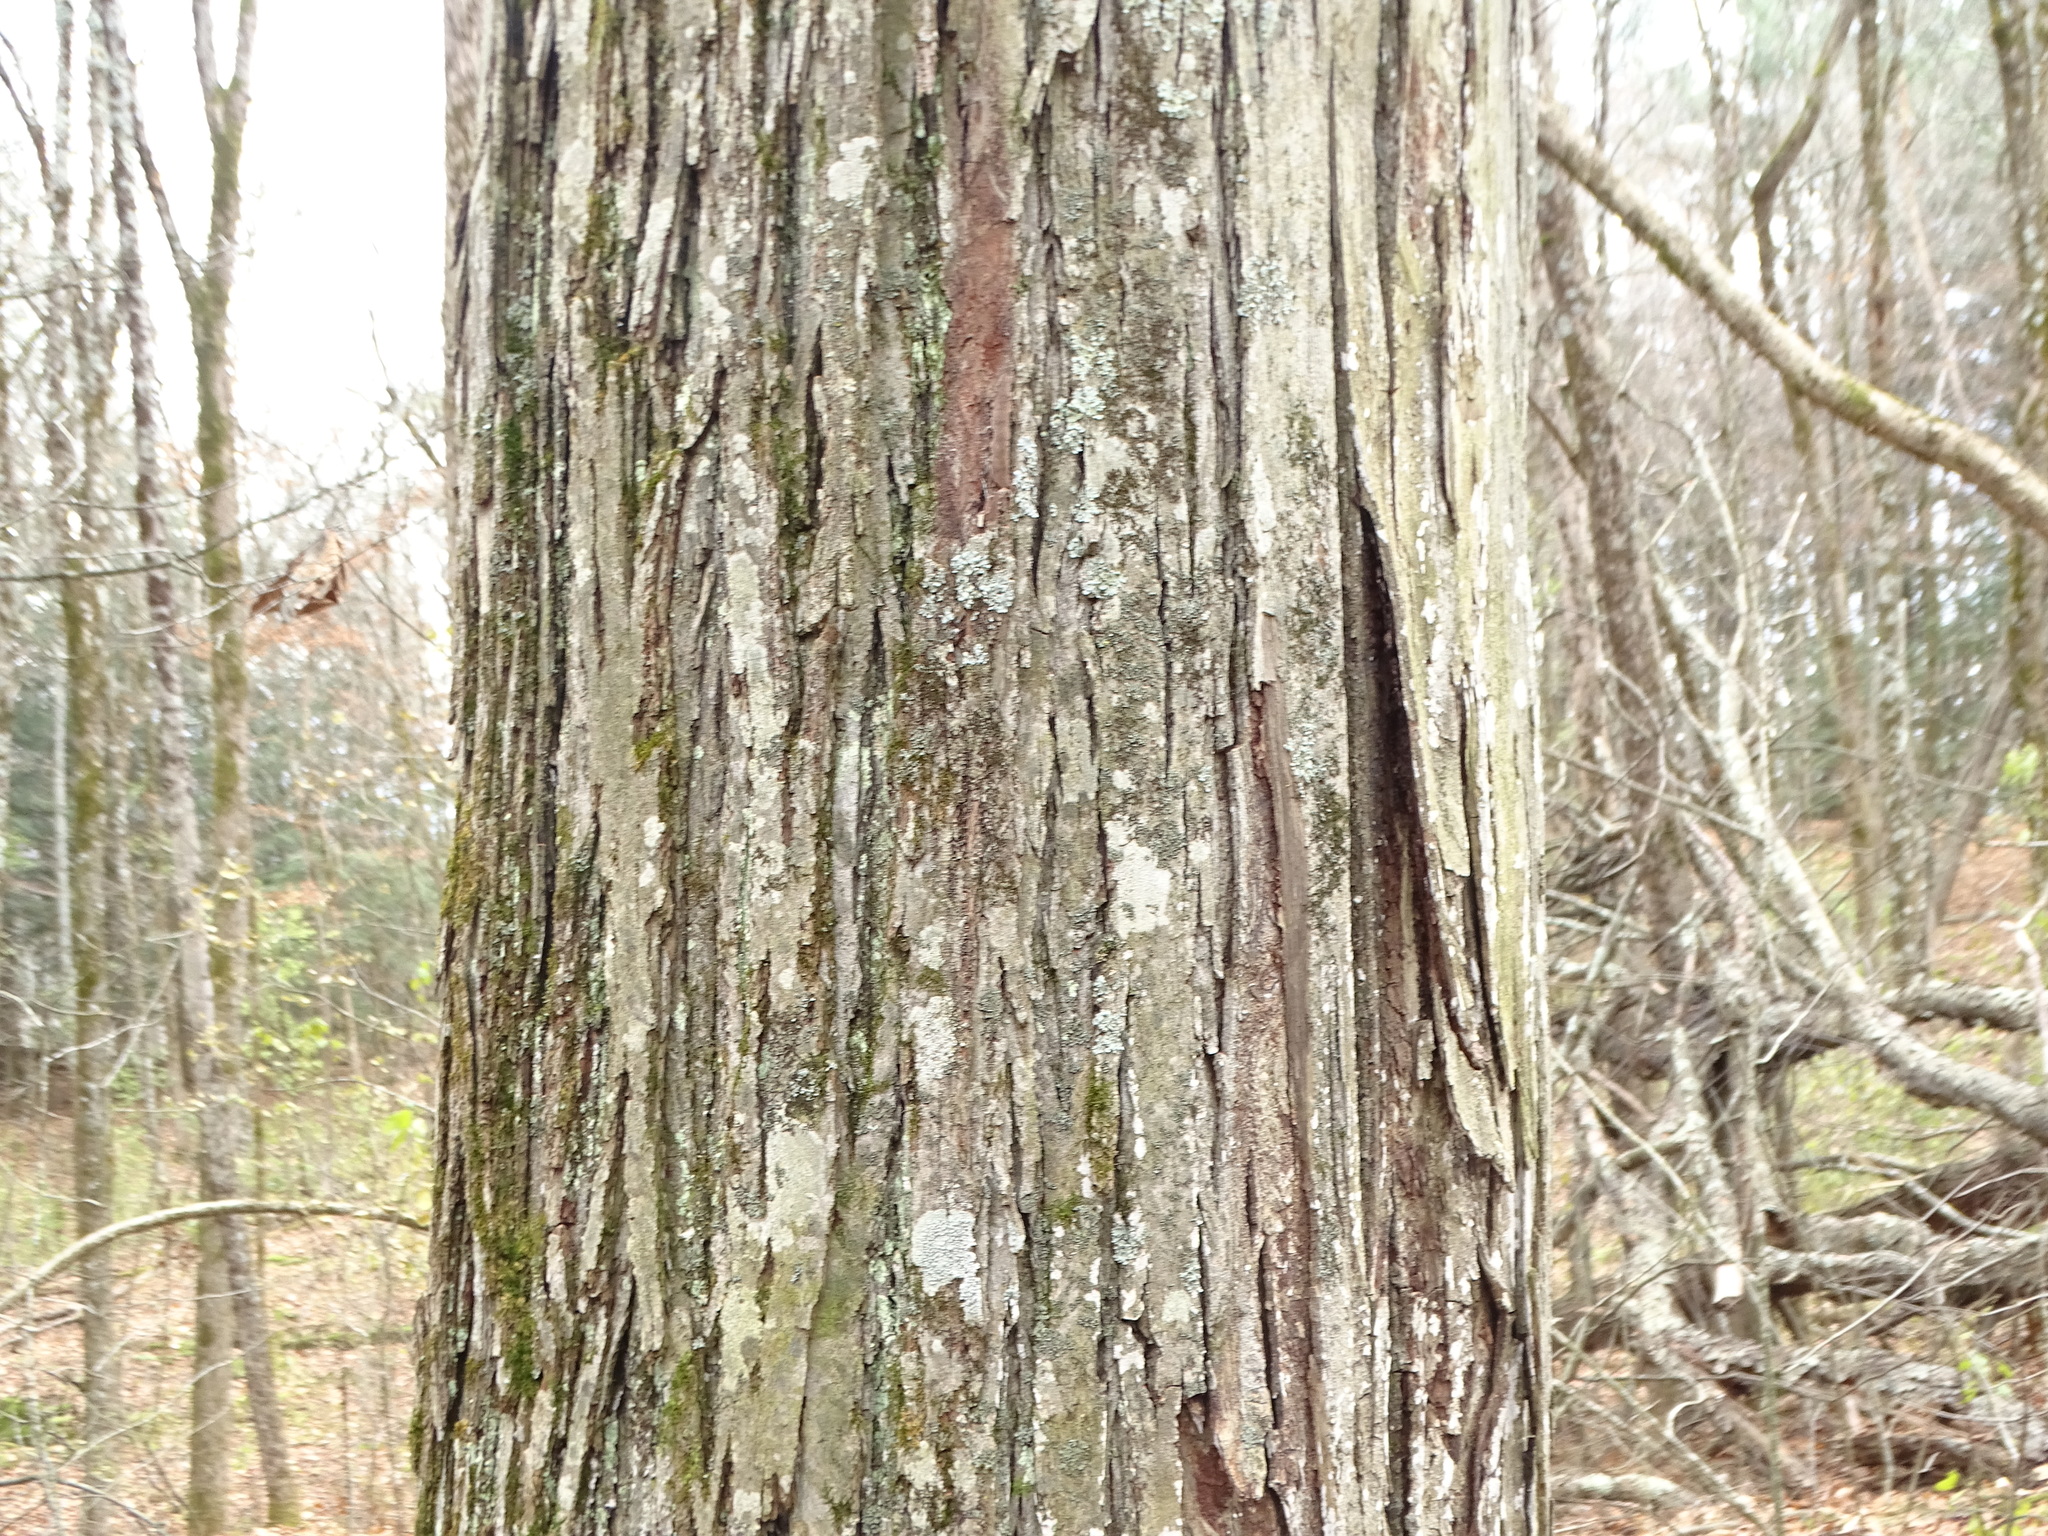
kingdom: Plantae
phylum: Tracheophyta
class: Magnoliopsida
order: Fagales
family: Juglandaceae
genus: Carya
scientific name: Carya ovata
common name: Shagbark hickory
